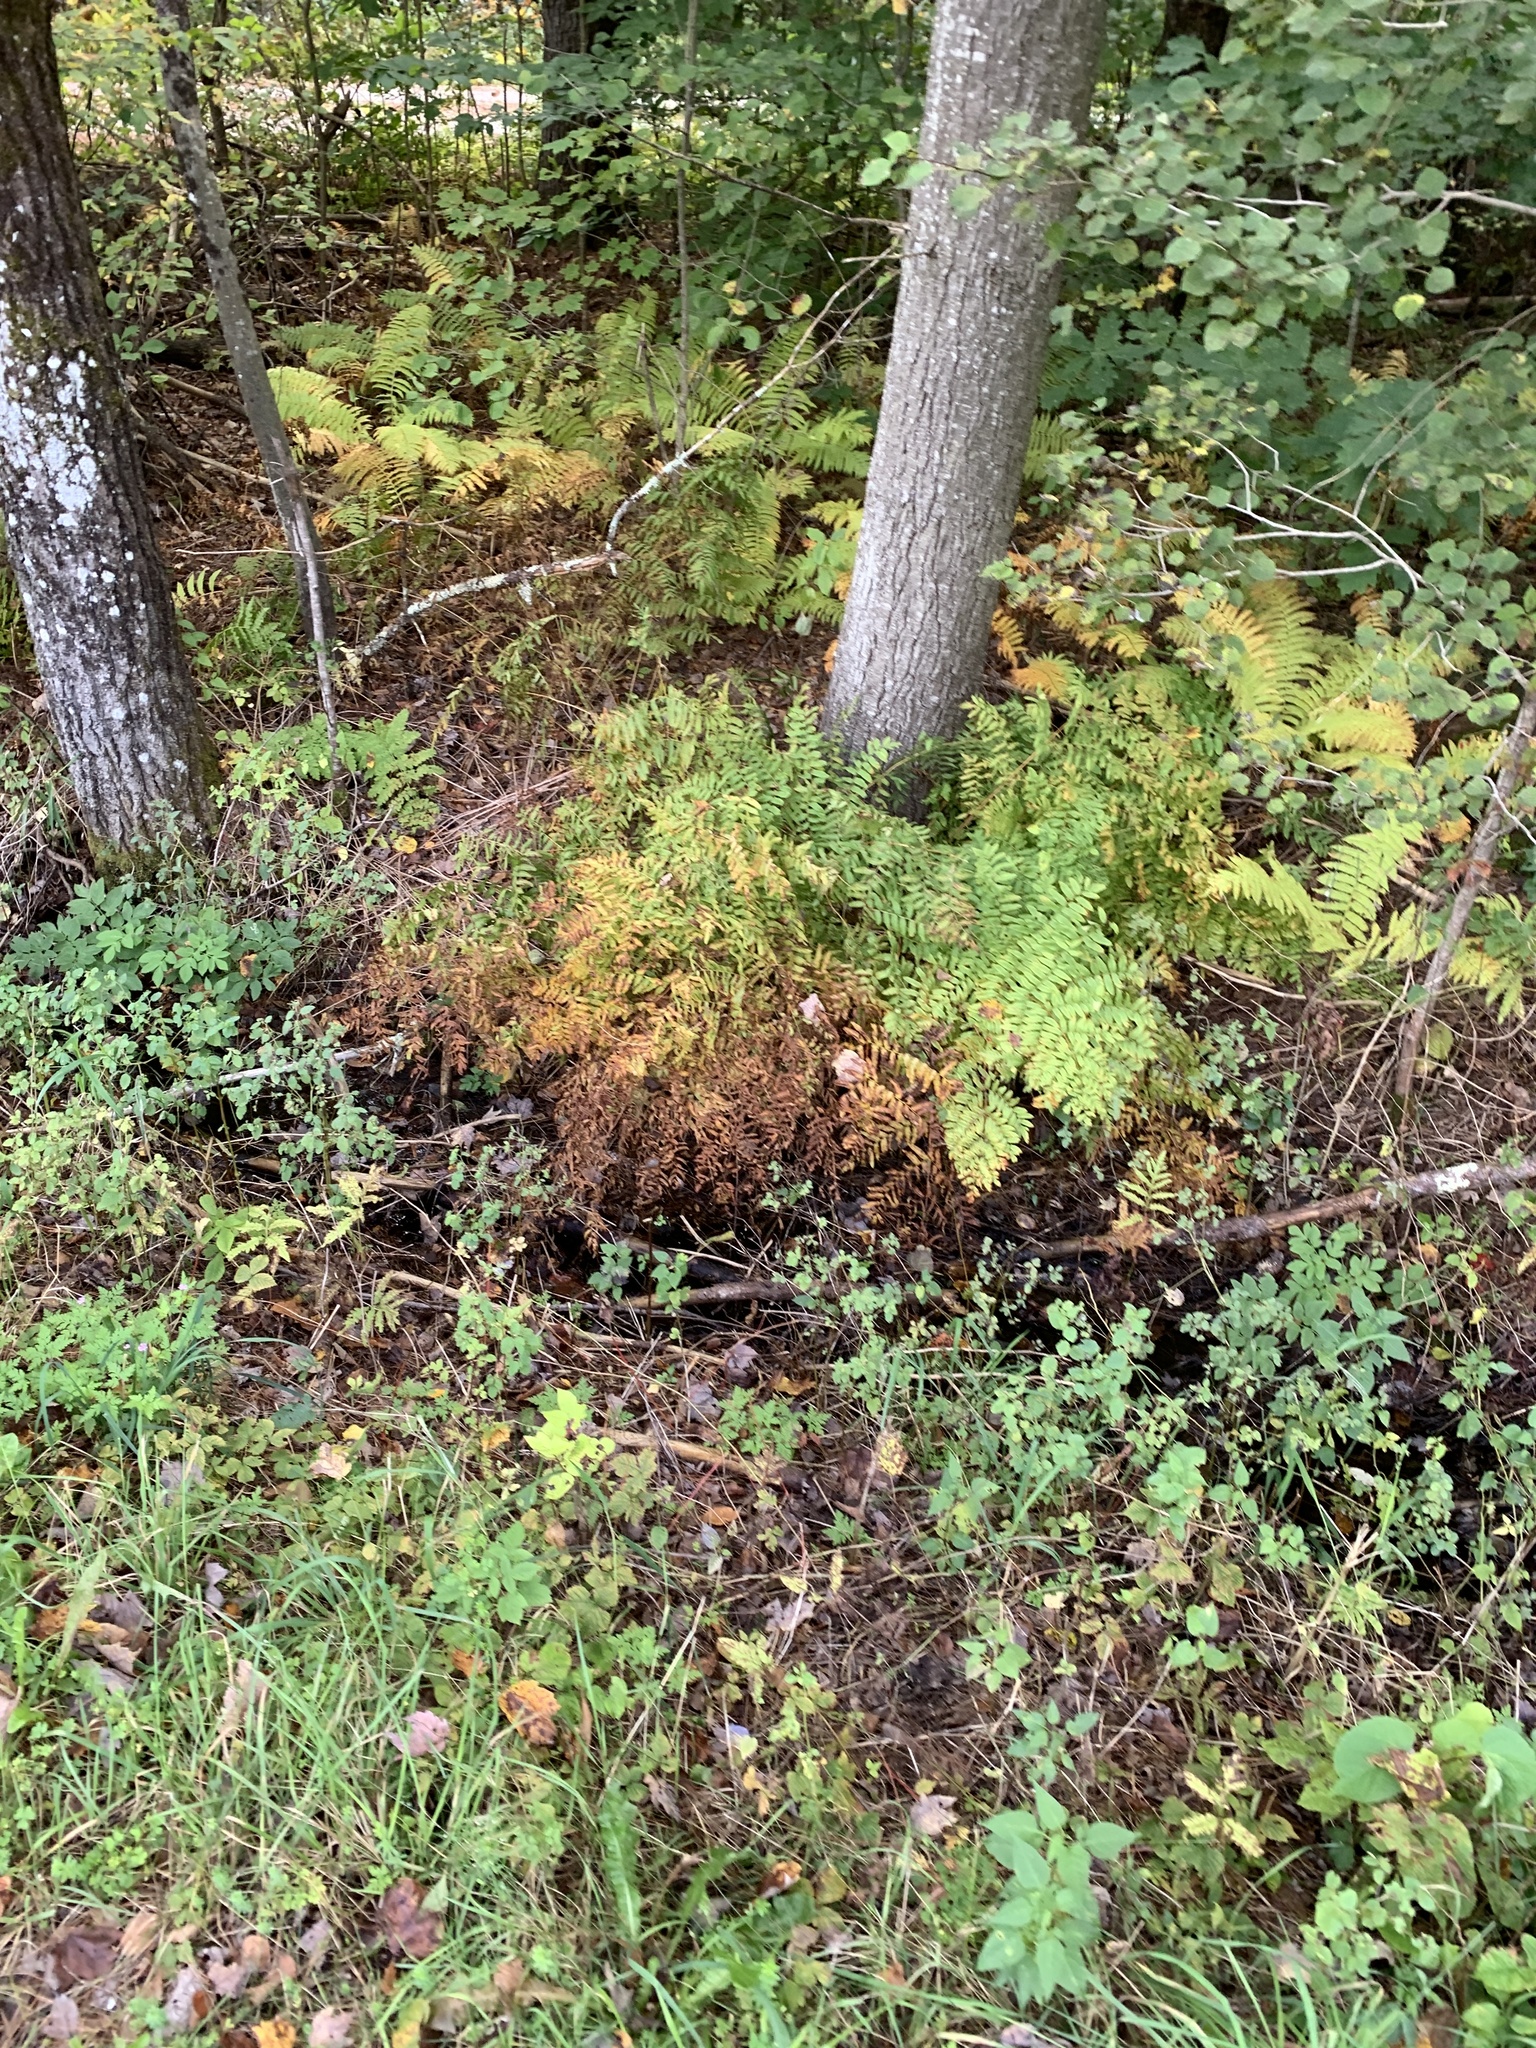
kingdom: Plantae
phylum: Tracheophyta
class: Polypodiopsida
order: Osmundales
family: Osmundaceae
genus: Osmunda
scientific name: Osmunda spectabilis
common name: American royal fern
